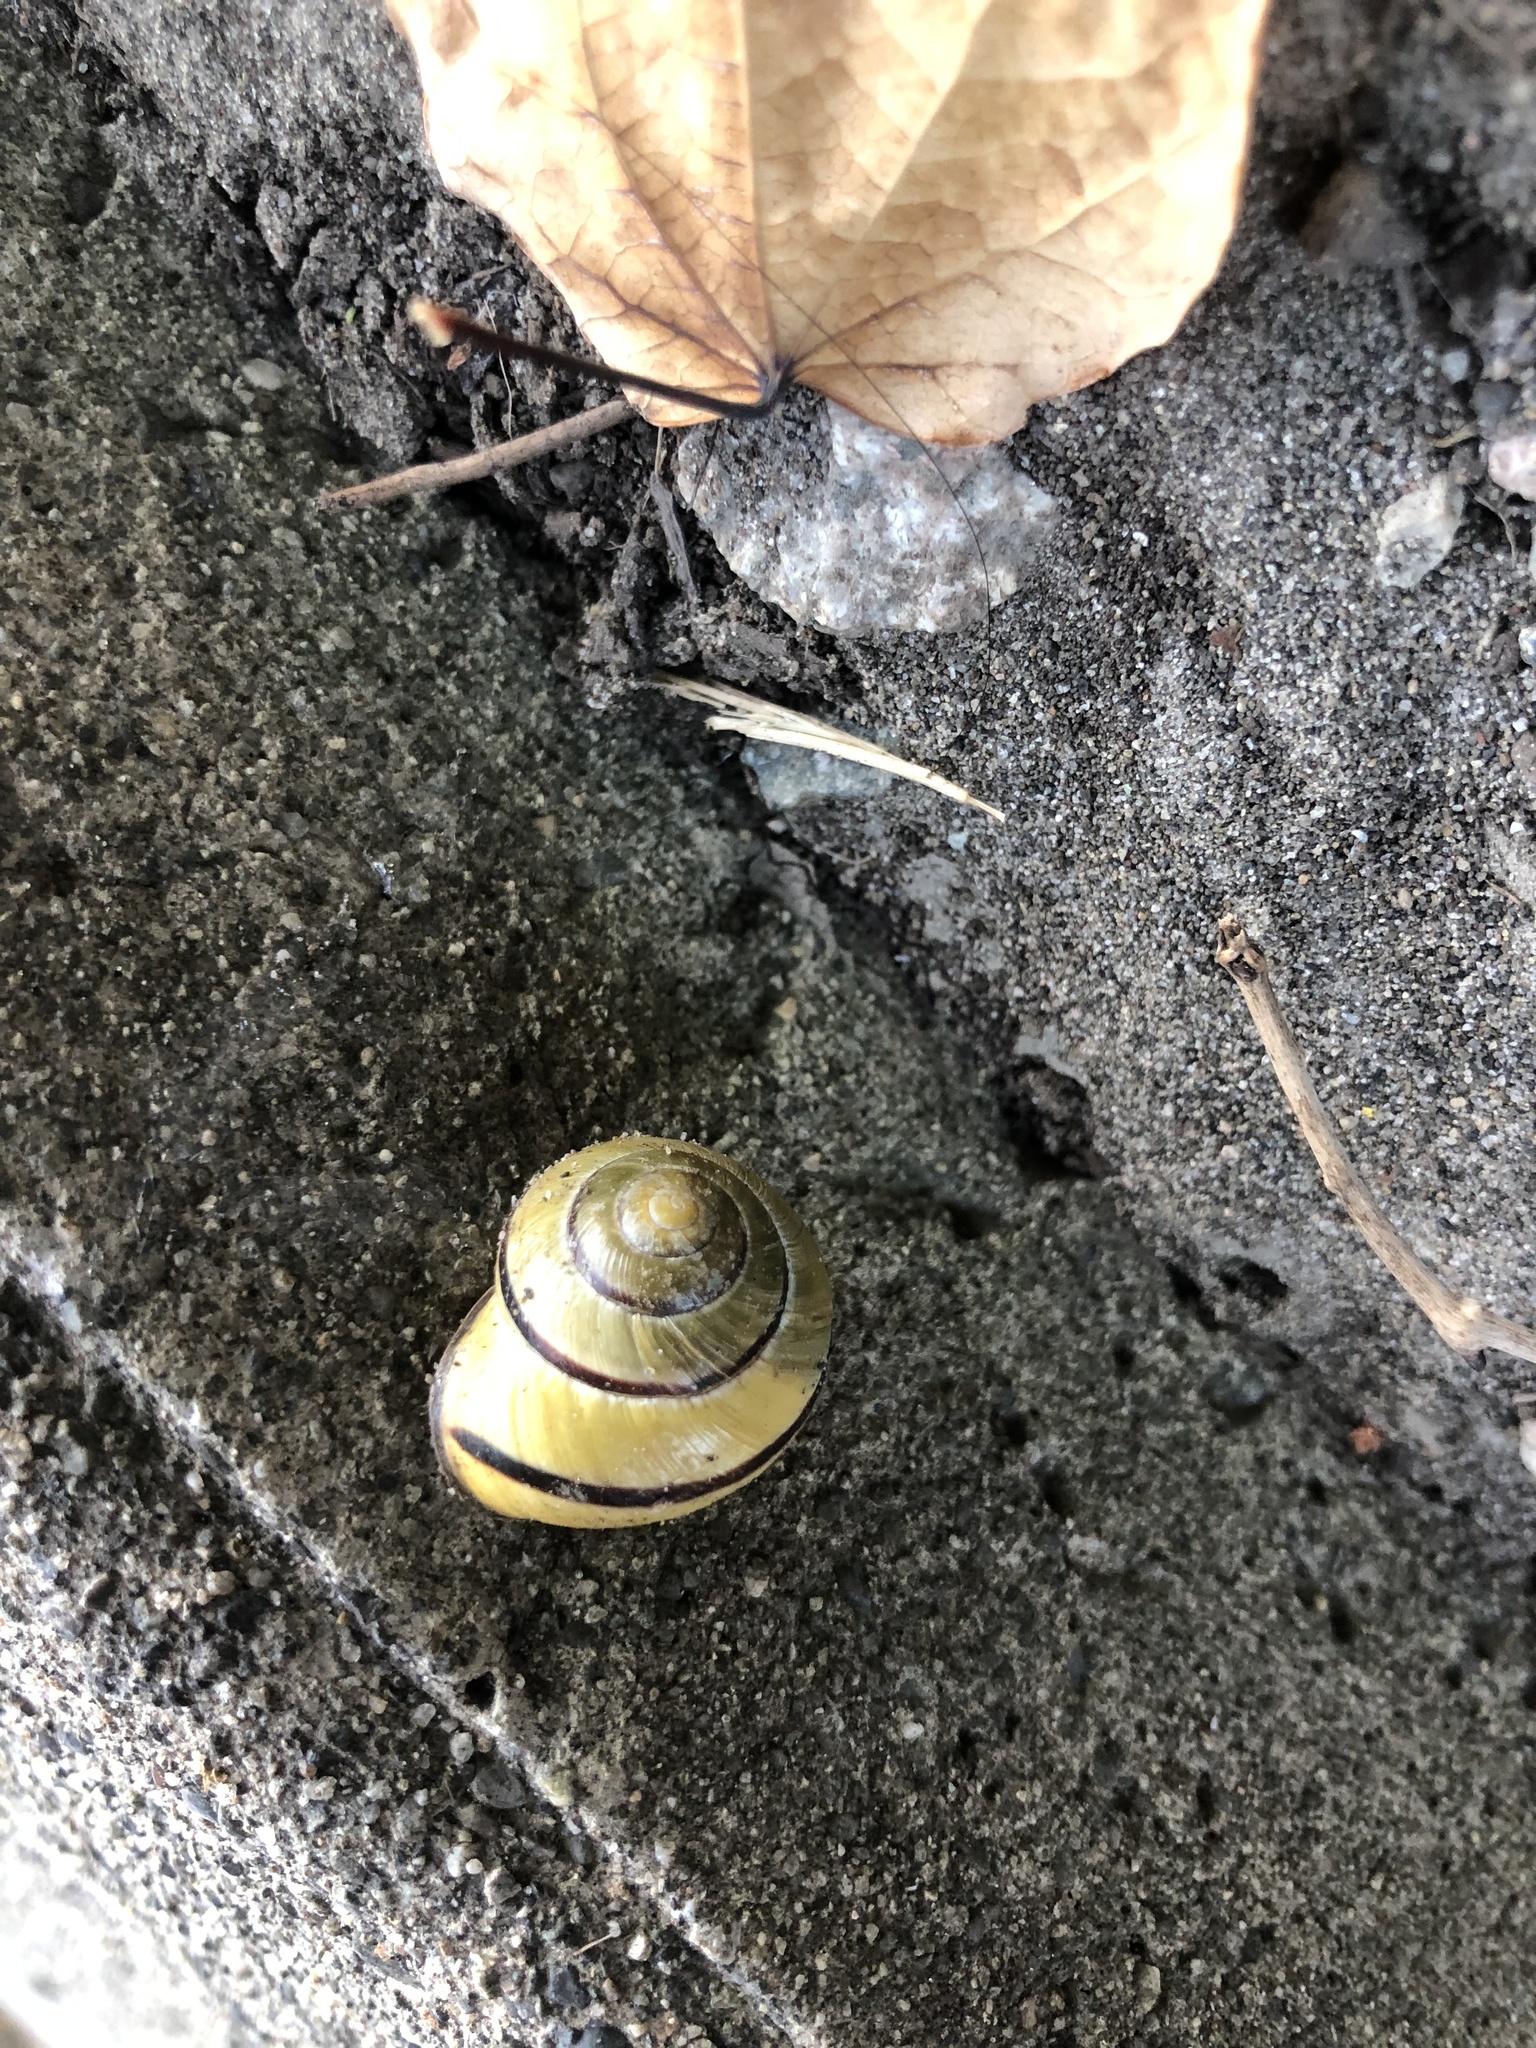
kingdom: Animalia
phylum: Mollusca
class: Gastropoda
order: Stylommatophora
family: Helicidae
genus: Cepaea
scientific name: Cepaea nemoralis
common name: Grovesnail
